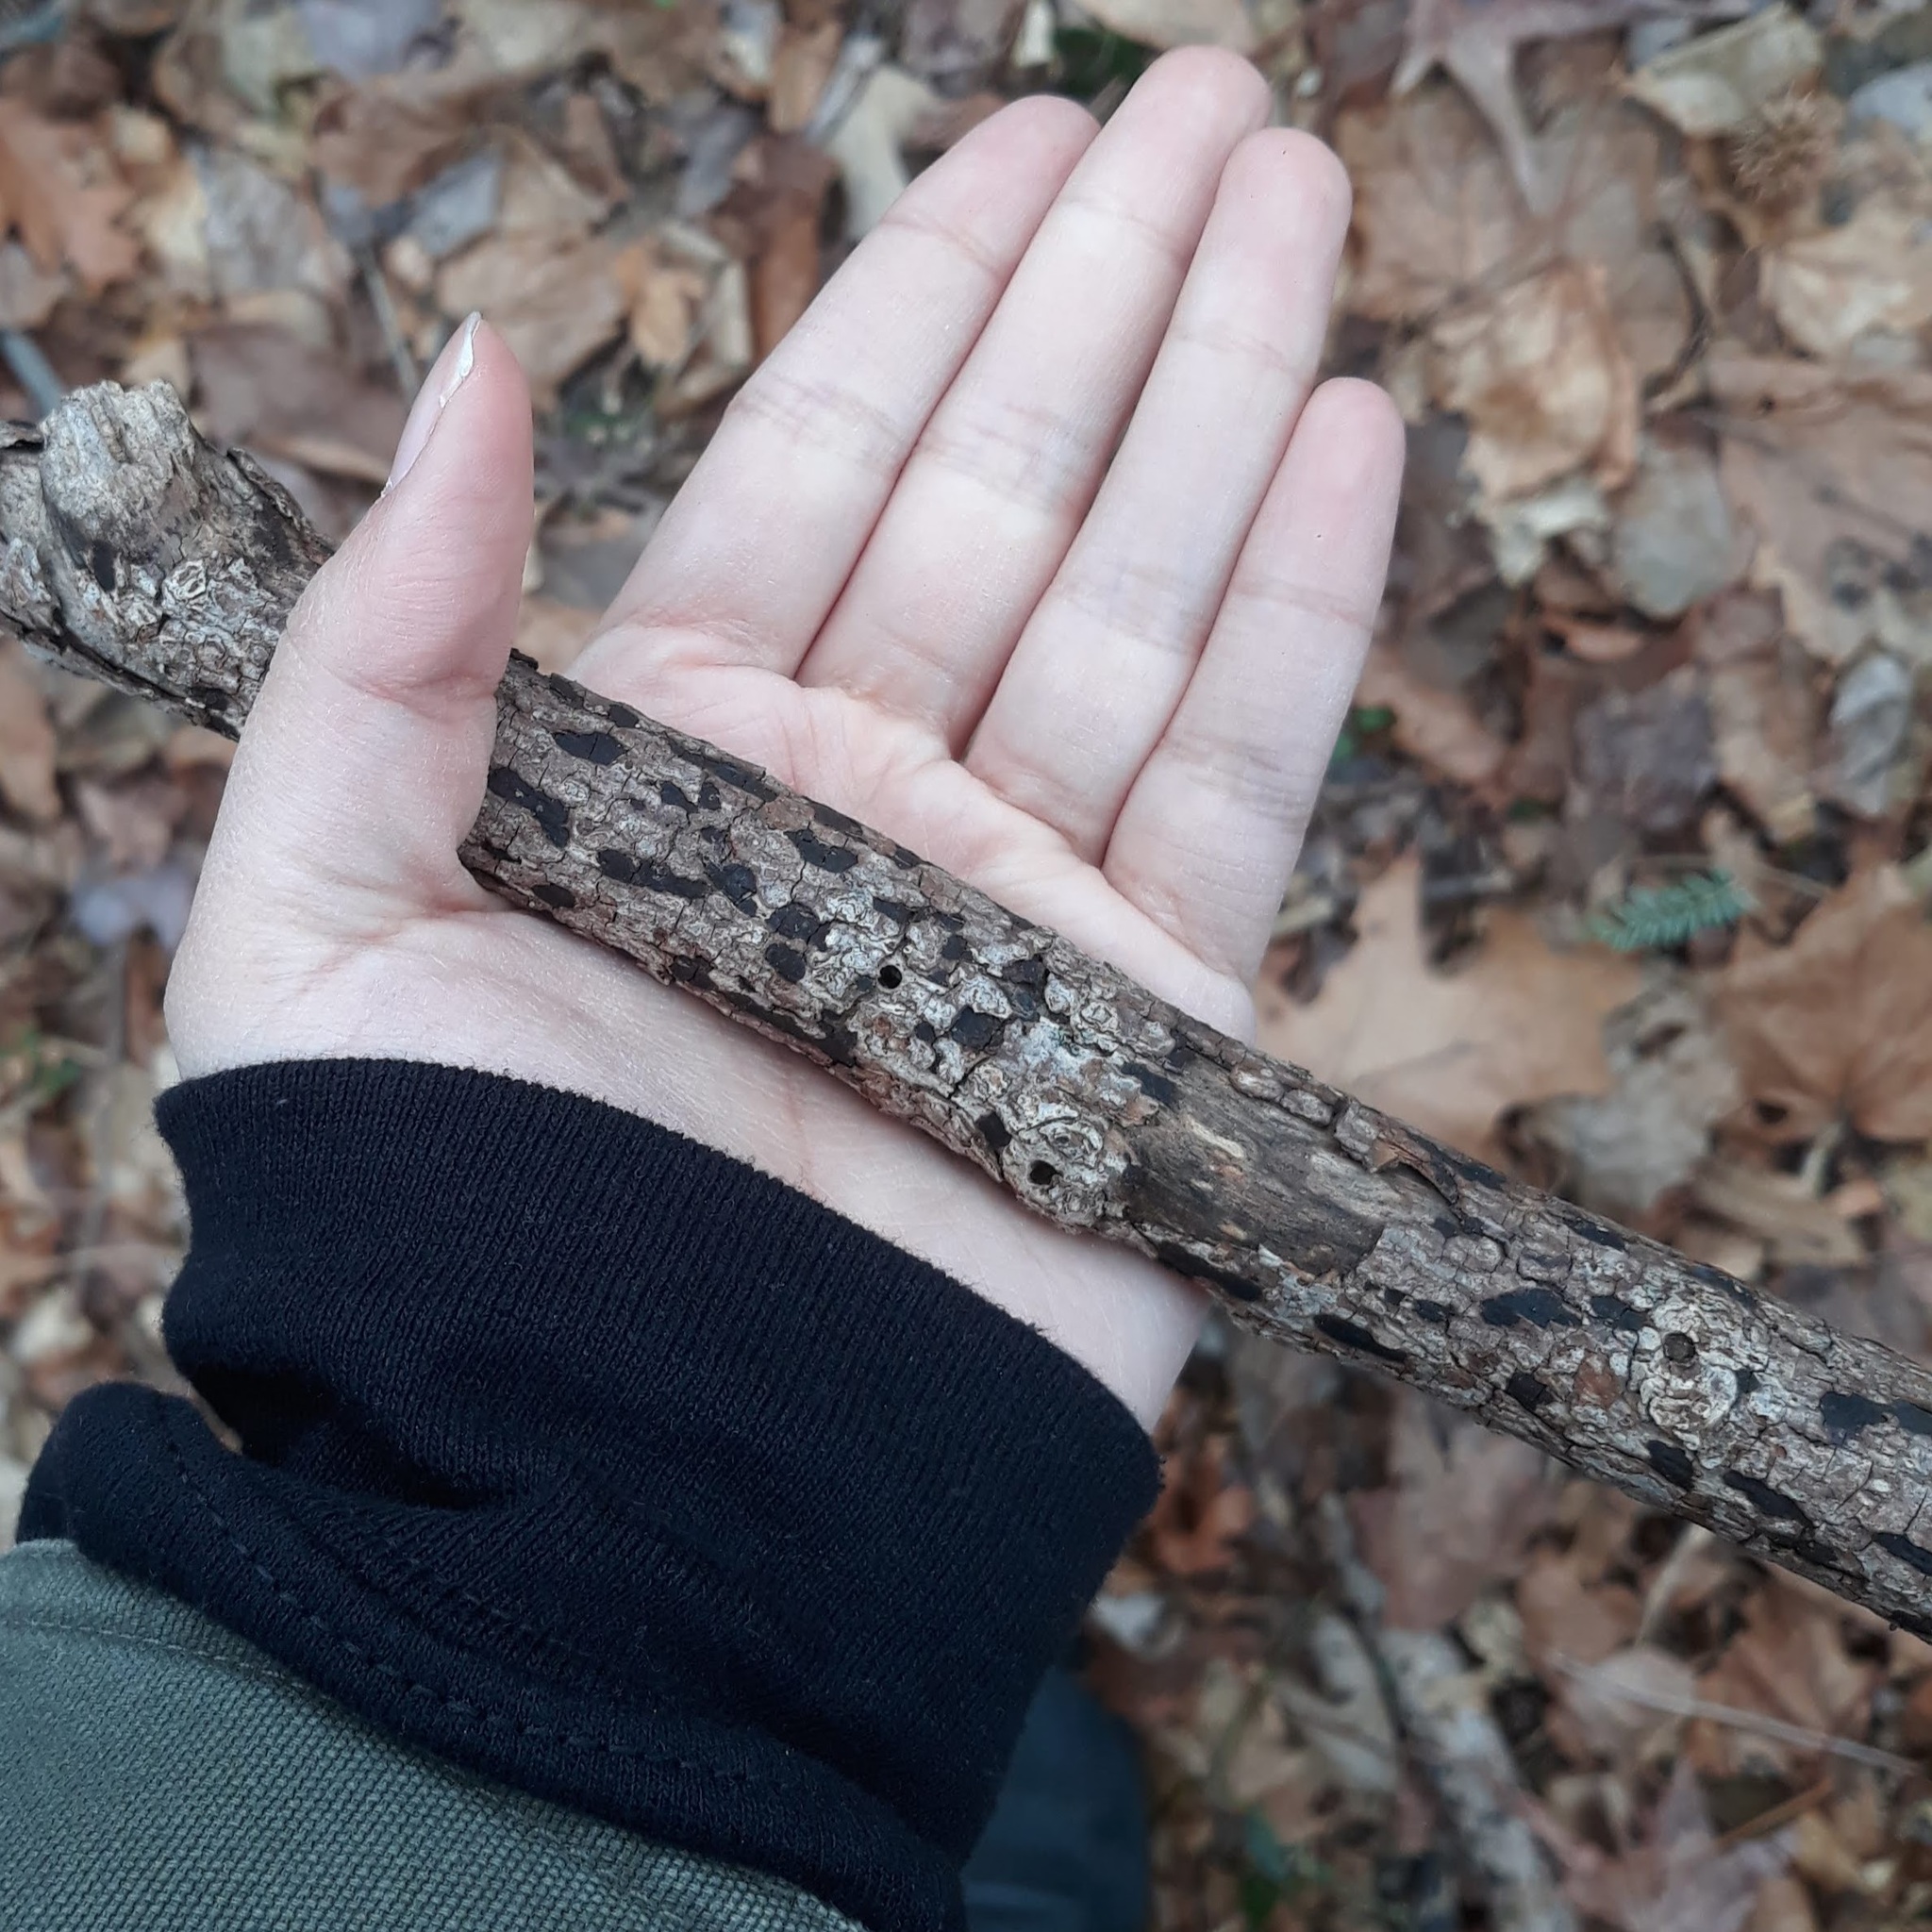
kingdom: Fungi
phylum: Ascomycota
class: Sordariomycetes
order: Xylariales
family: Xylariaceae
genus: Whalleya
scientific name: Whalleya microplaca
